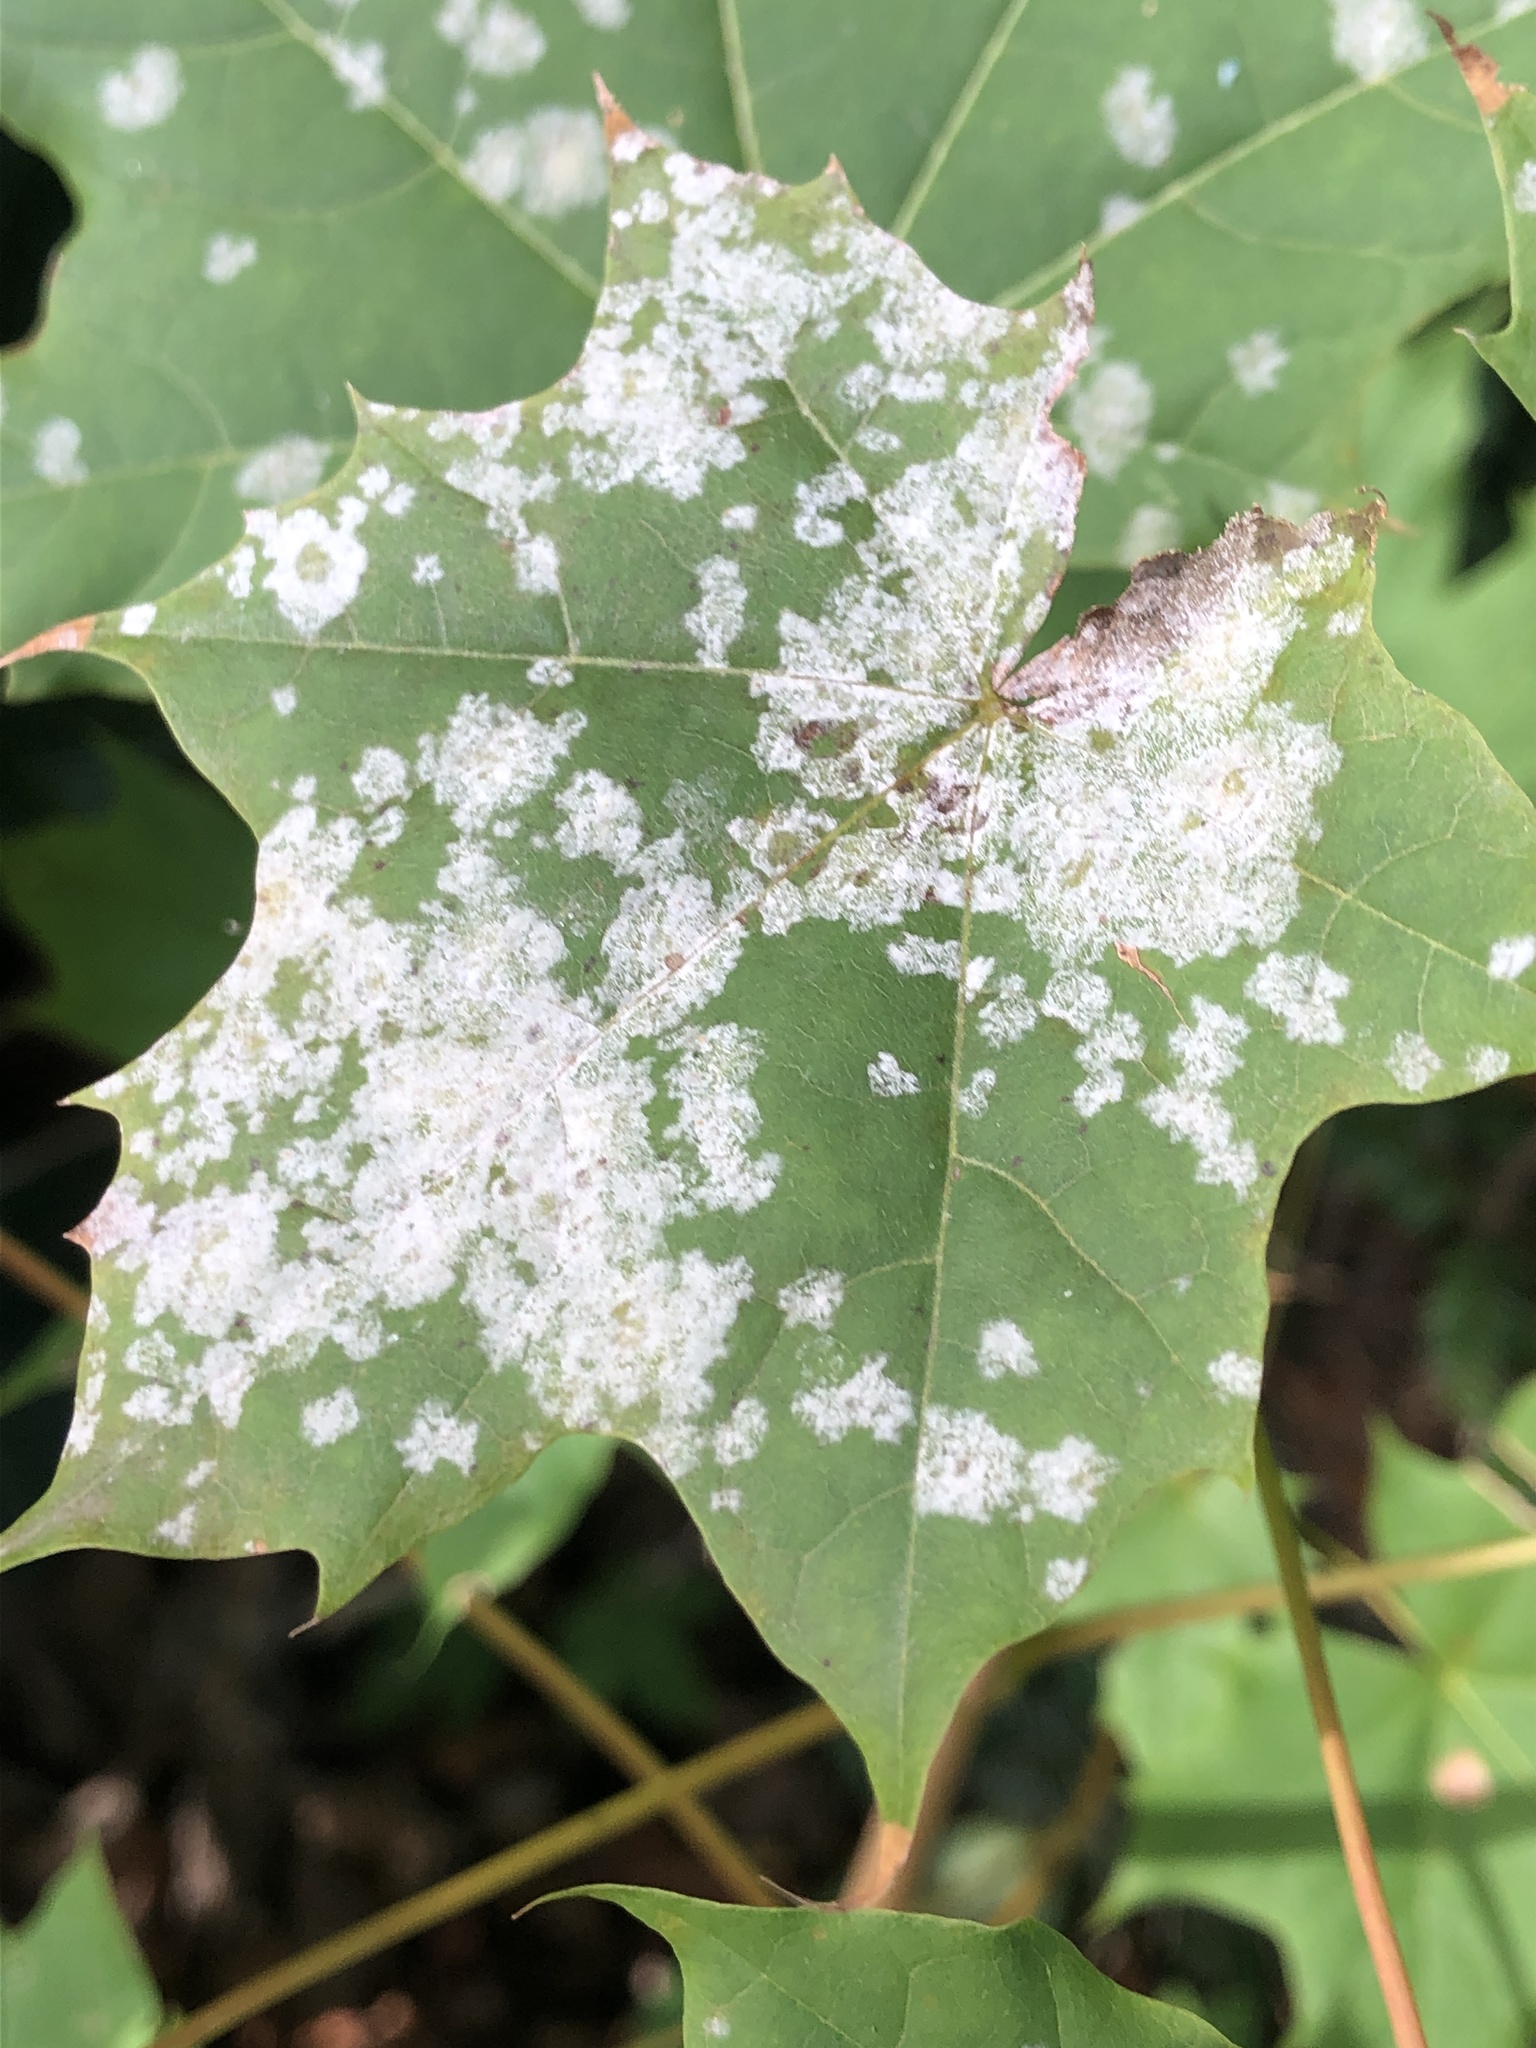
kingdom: Fungi
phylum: Ascomycota
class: Leotiomycetes
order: Helotiales
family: Erysiphaceae
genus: Sawadaea
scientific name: Sawadaea tulasnei
